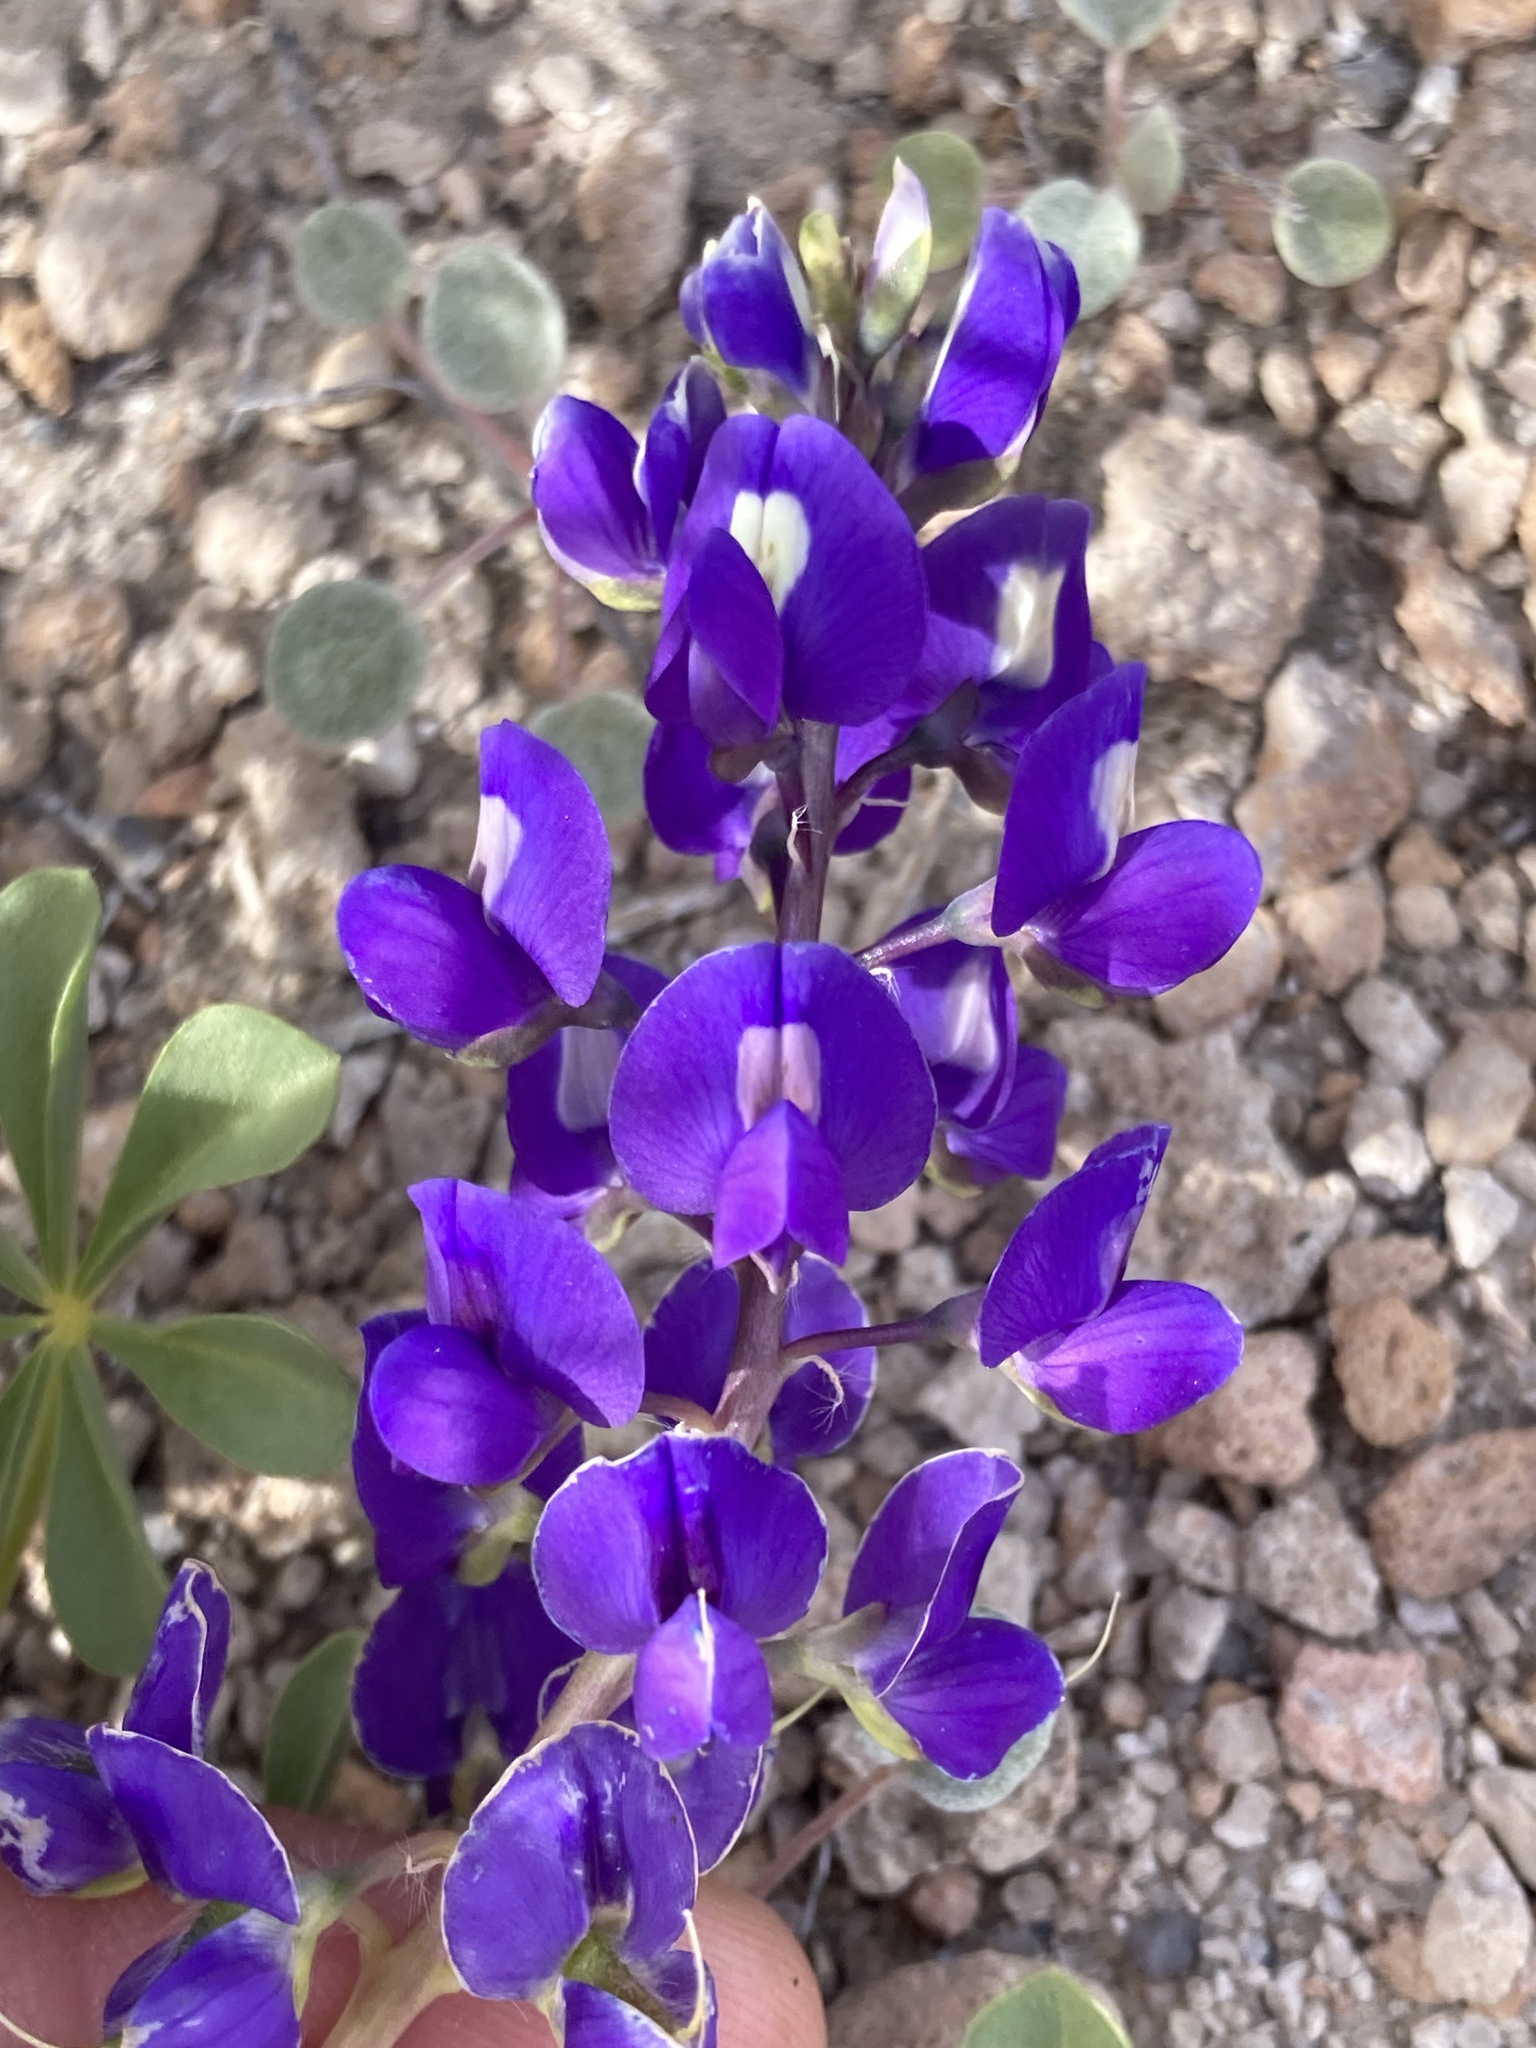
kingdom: Plantae
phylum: Tracheophyta
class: Magnoliopsida
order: Fabales
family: Fabaceae
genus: Lupinus
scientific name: Lupinus
